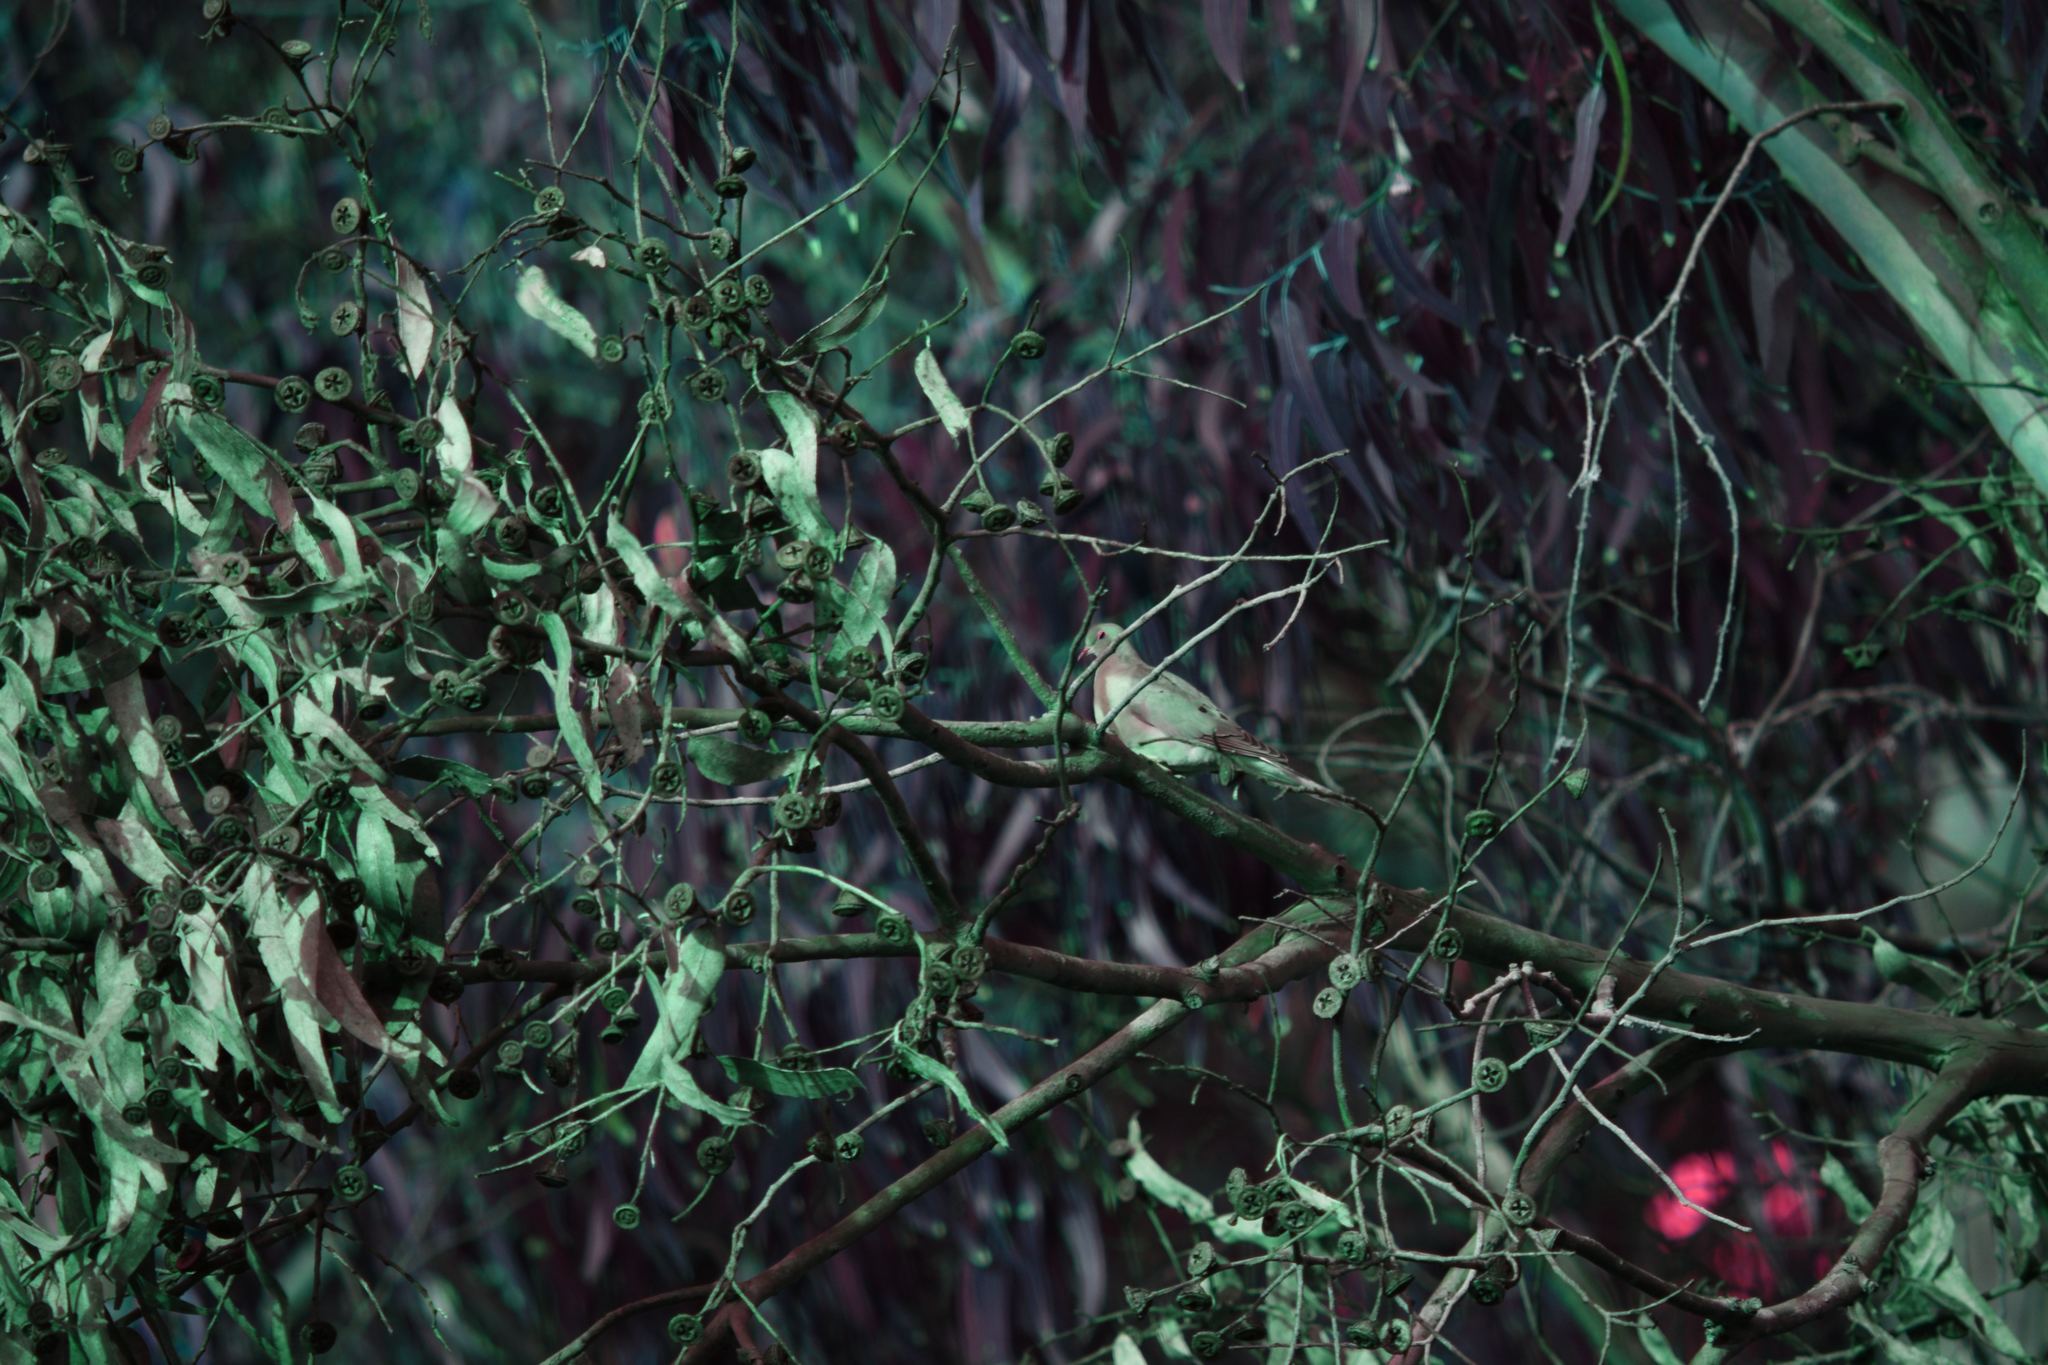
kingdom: Animalia
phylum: Chordata
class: Aves
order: Columbiformes
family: Columbidae
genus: Zenaida
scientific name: Zenaida macroura
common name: Mourning dove
